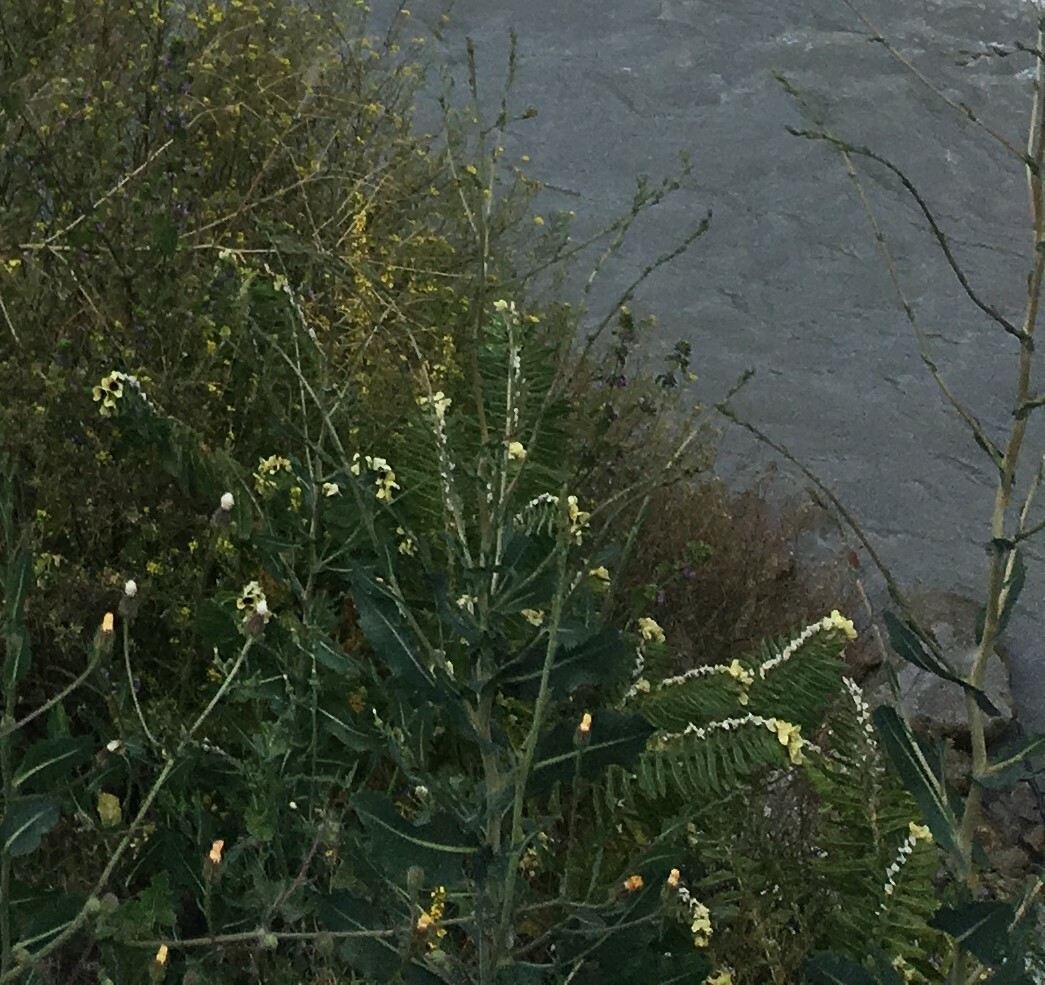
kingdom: Plantae
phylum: Tracheophyta
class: Magnoliopsida
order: Solanales
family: Solanaceae
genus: Hyoscyamus
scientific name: Hyoscyamus niger
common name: Henbane
